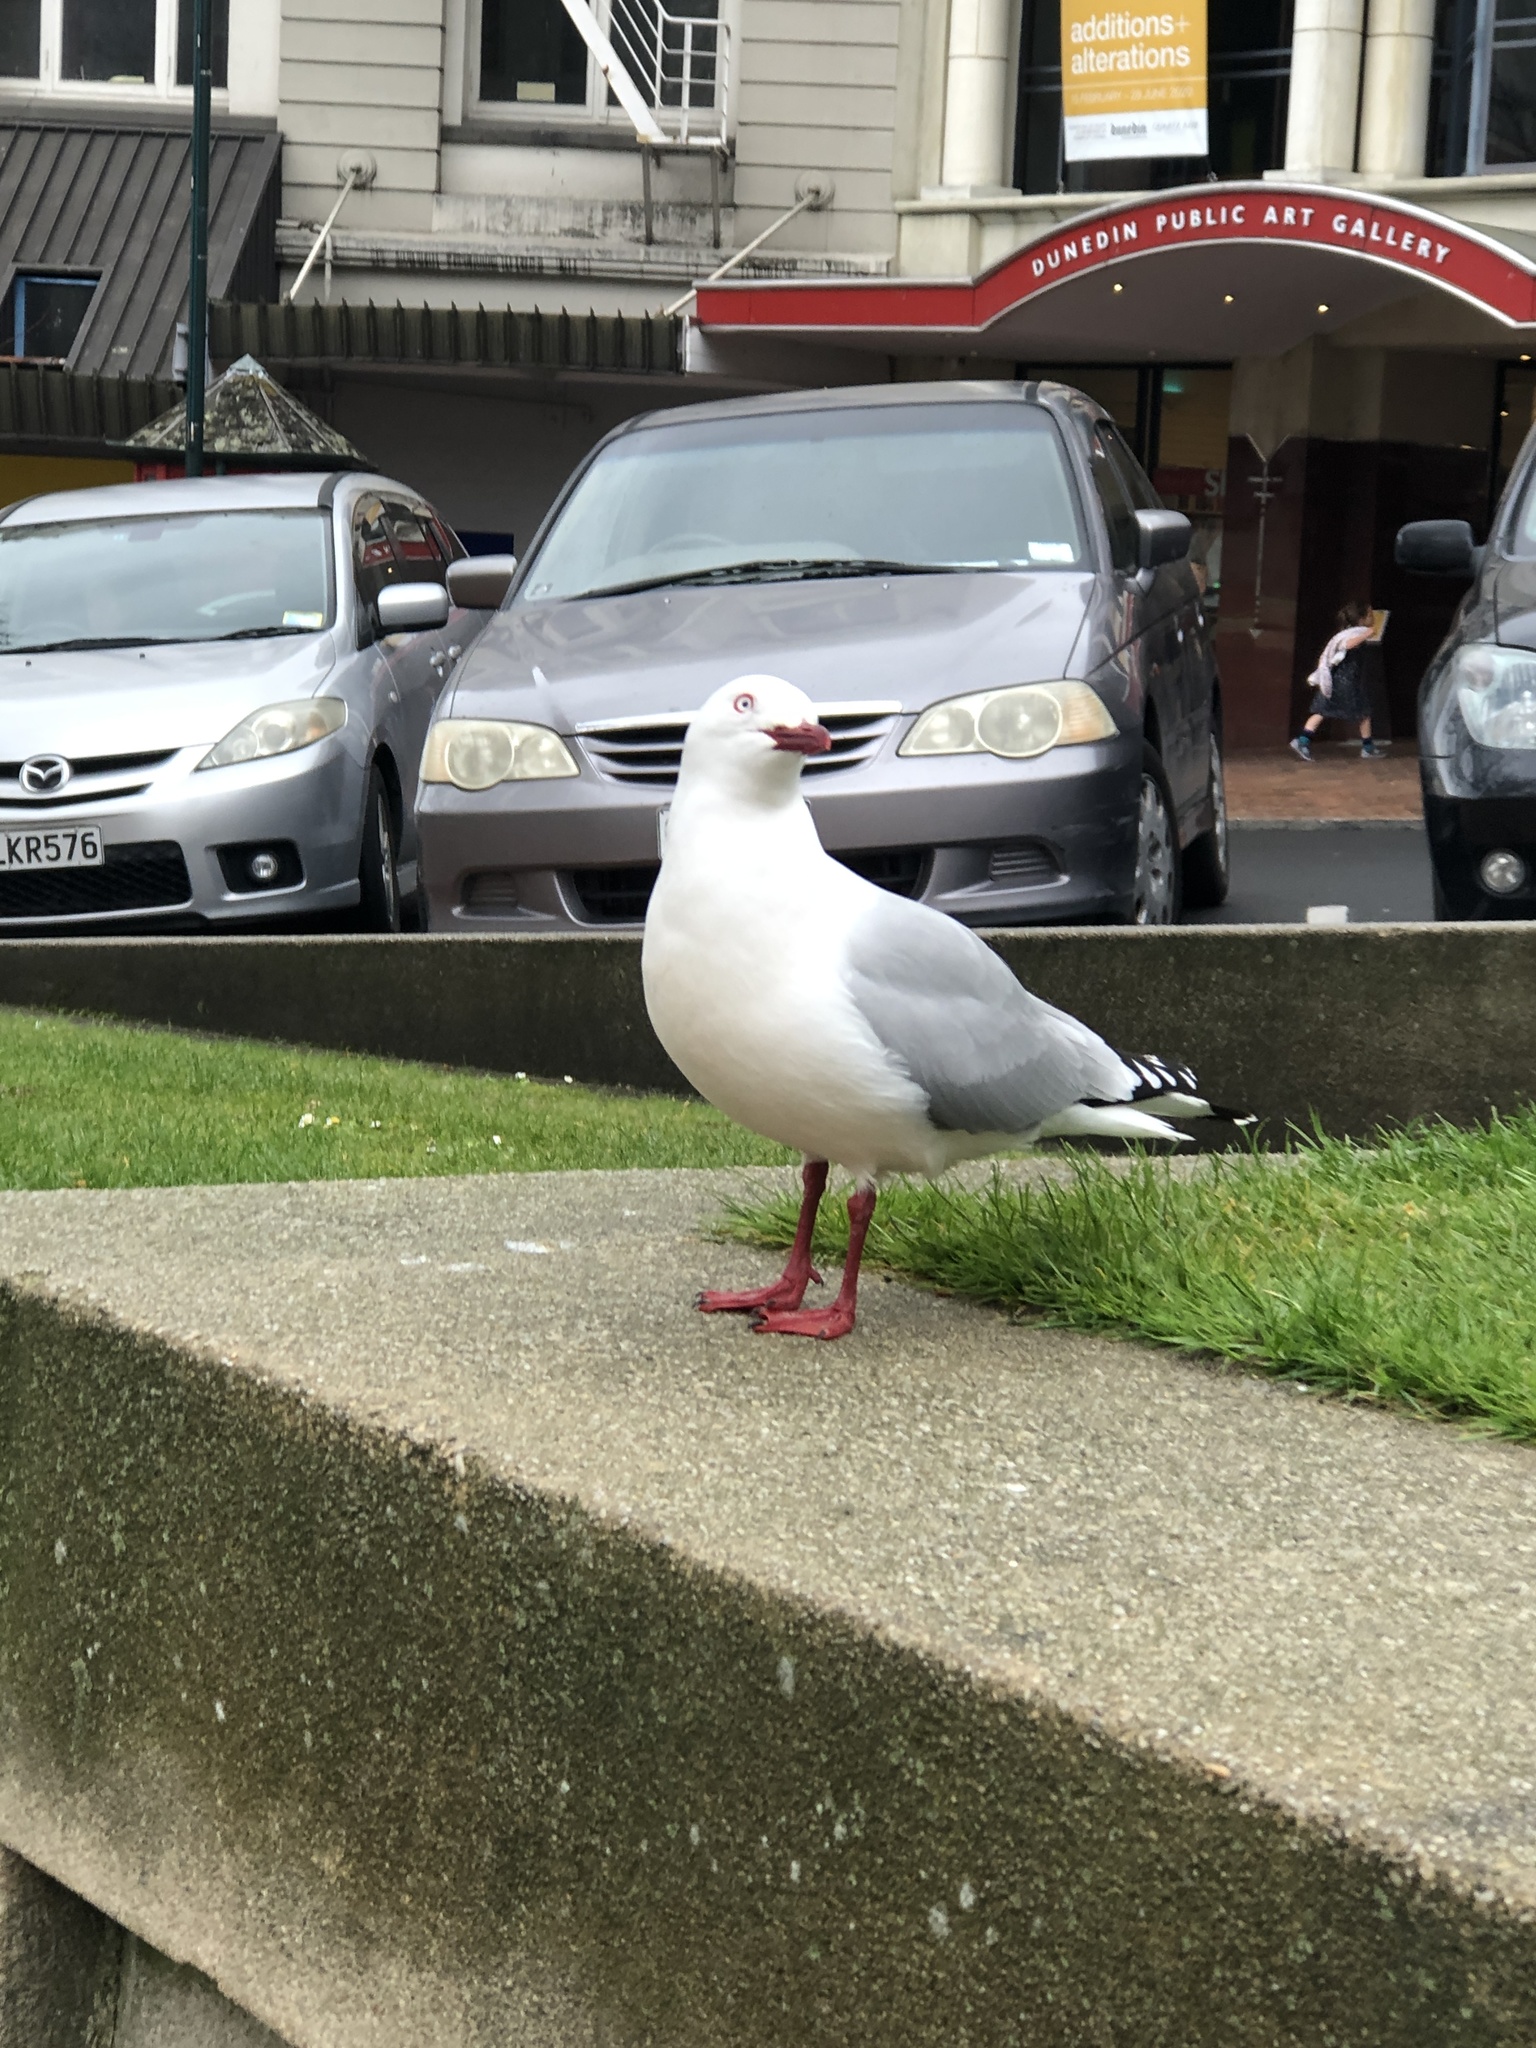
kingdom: Animalia
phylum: Chordata
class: Aves
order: Charadriiformes
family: Laridae
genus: Chroicocephalus
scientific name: Chroicocephalus novaehollandiae
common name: Silver gull
